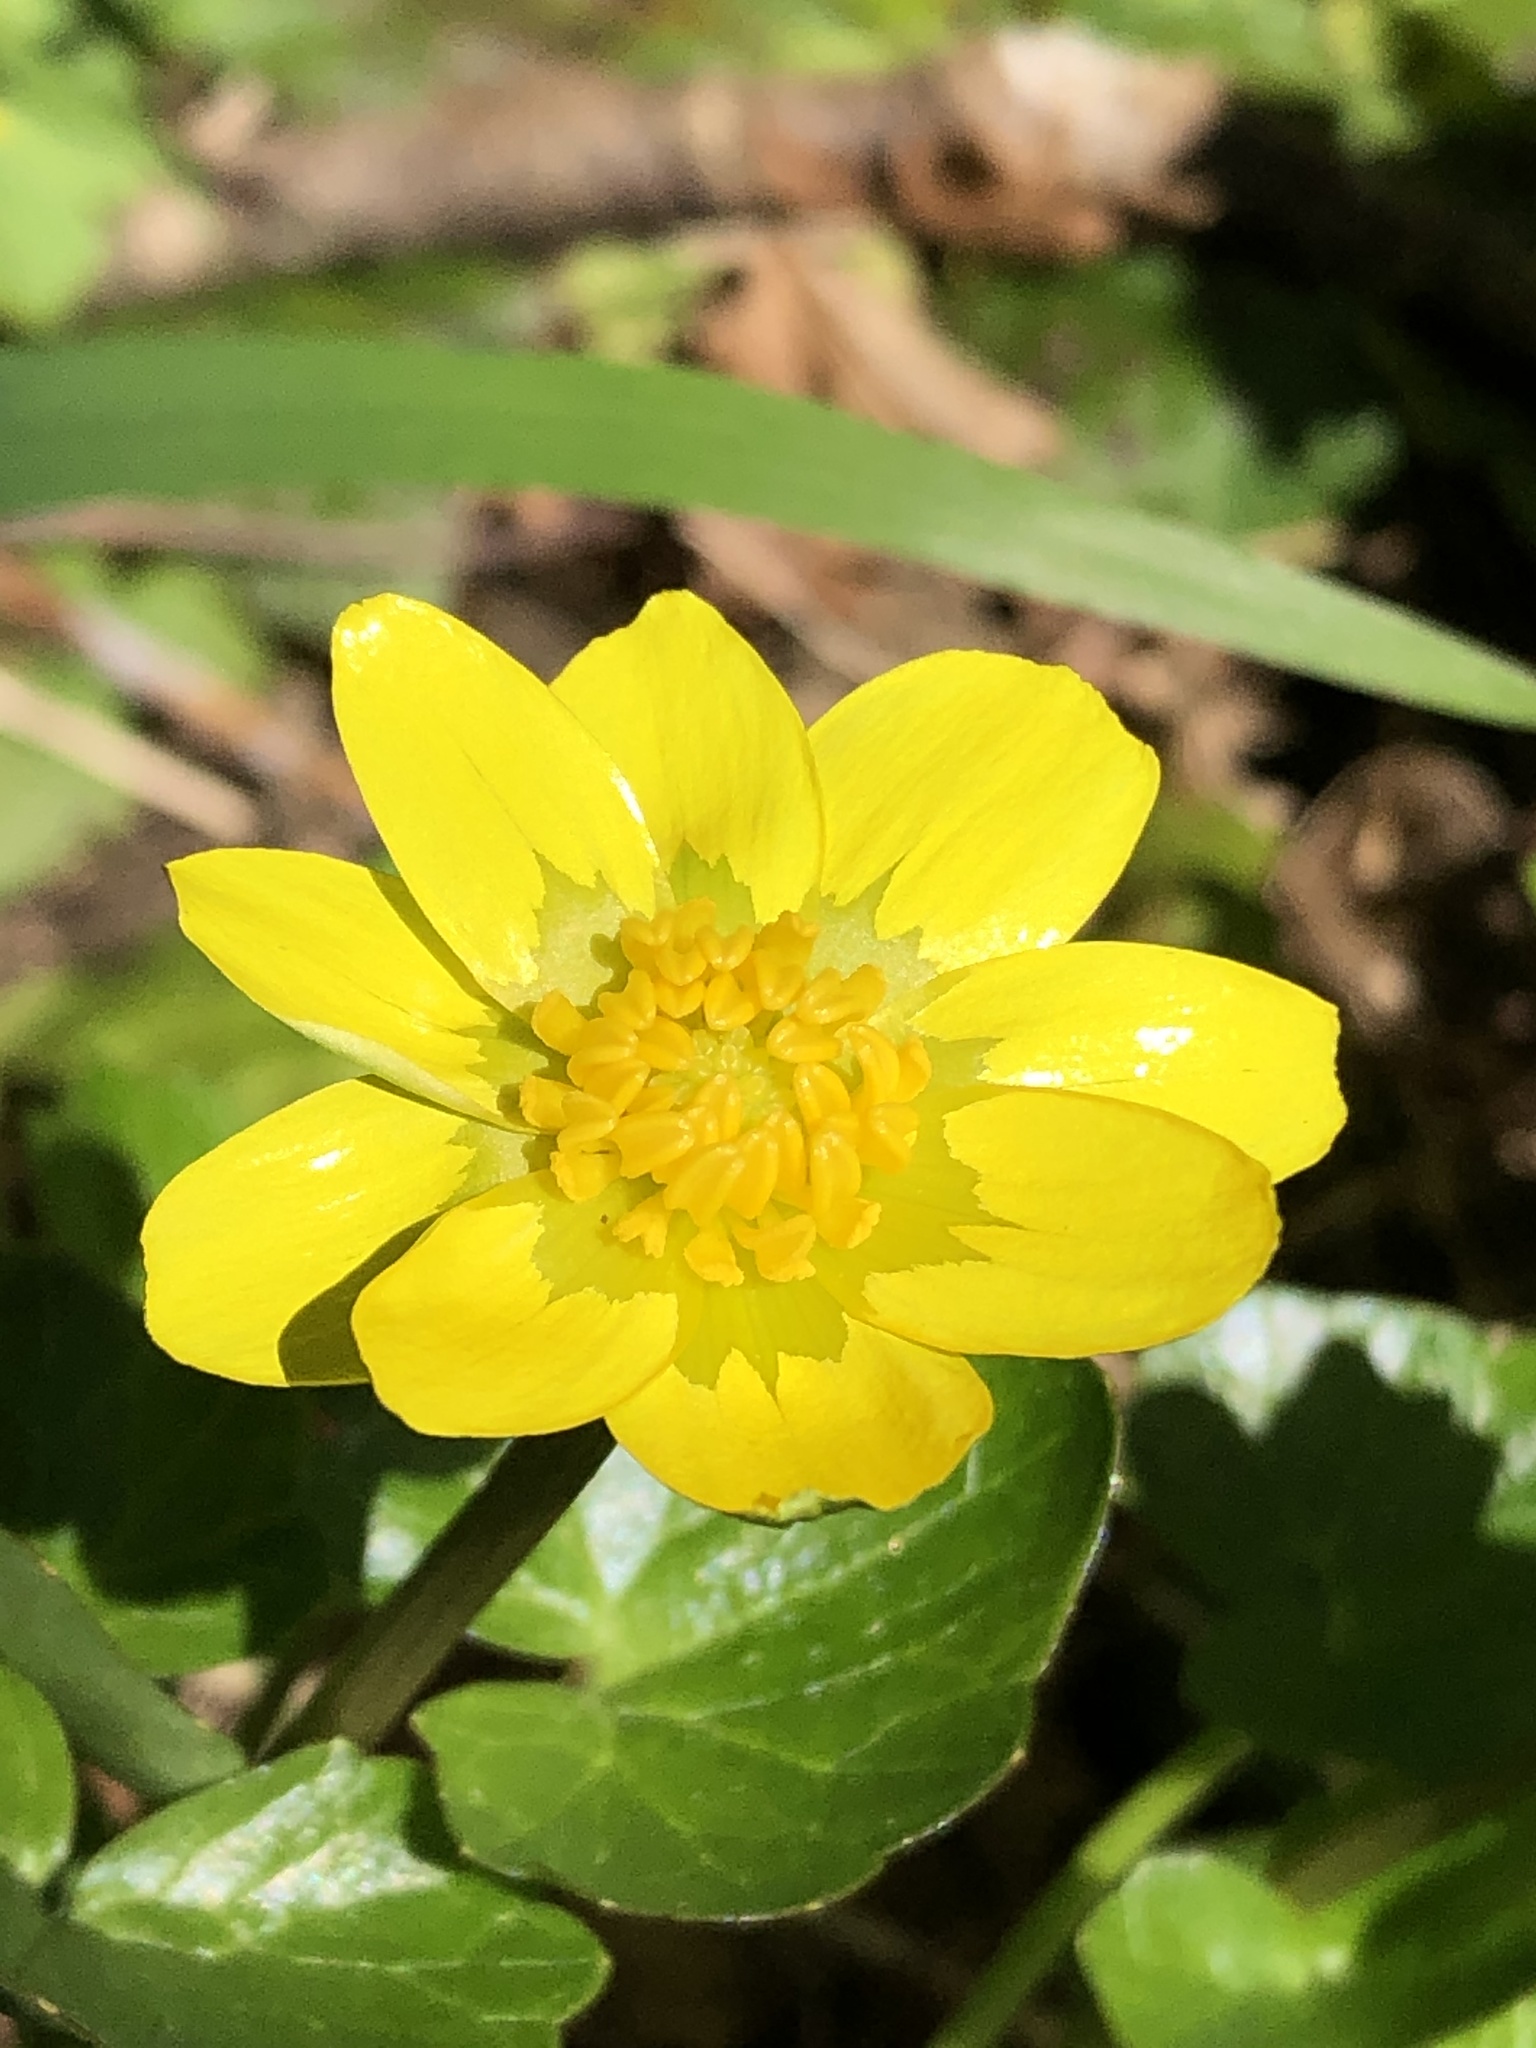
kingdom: Plantae
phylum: Tracheophyta
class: Magnoliopsida
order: Ranunculales
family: Ranunculaceae
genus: Ficaria
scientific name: Ficaria verna
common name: Lesser celandine
